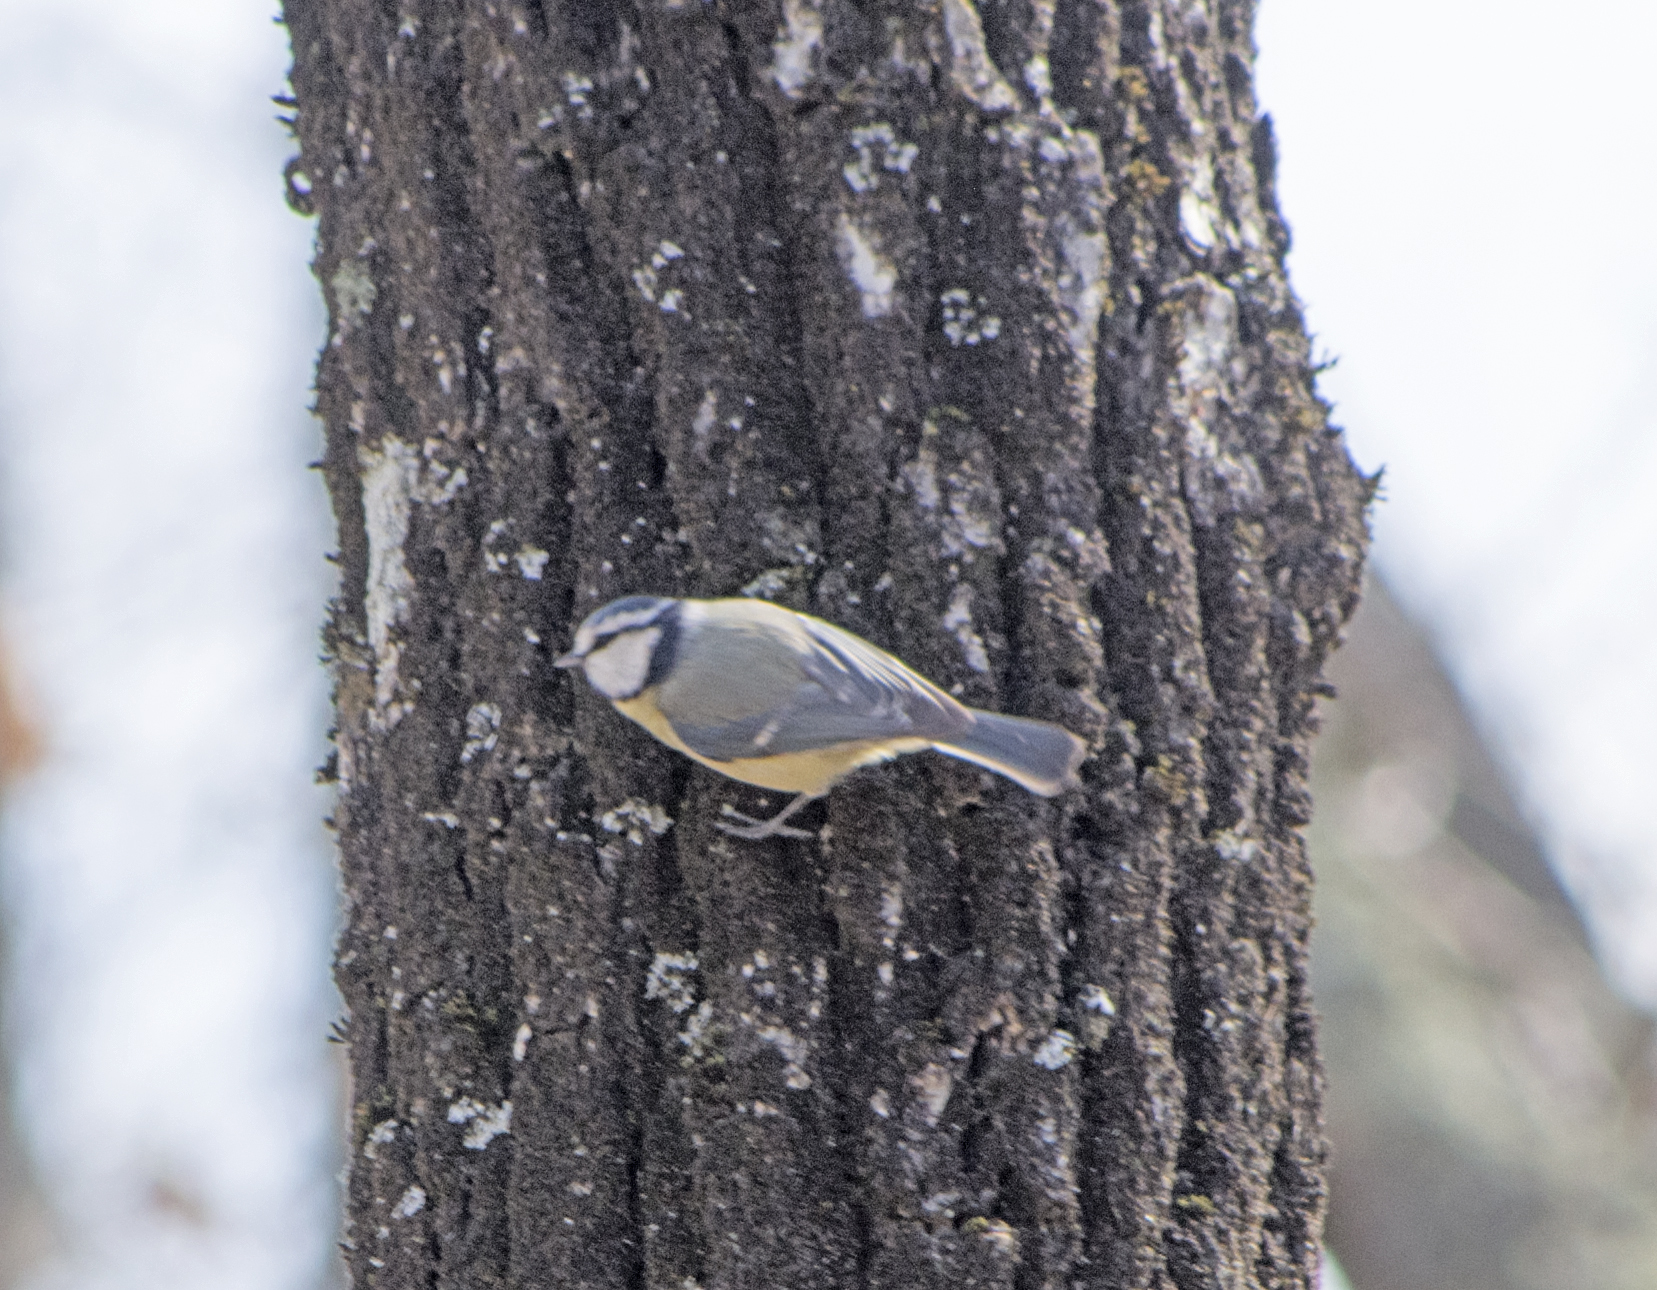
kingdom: Animalia
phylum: Chordata
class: Aves
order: Passeriformes
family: Paridae
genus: Cyanistes
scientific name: Cyanistes caeruleus
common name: Eurasian blue tit
